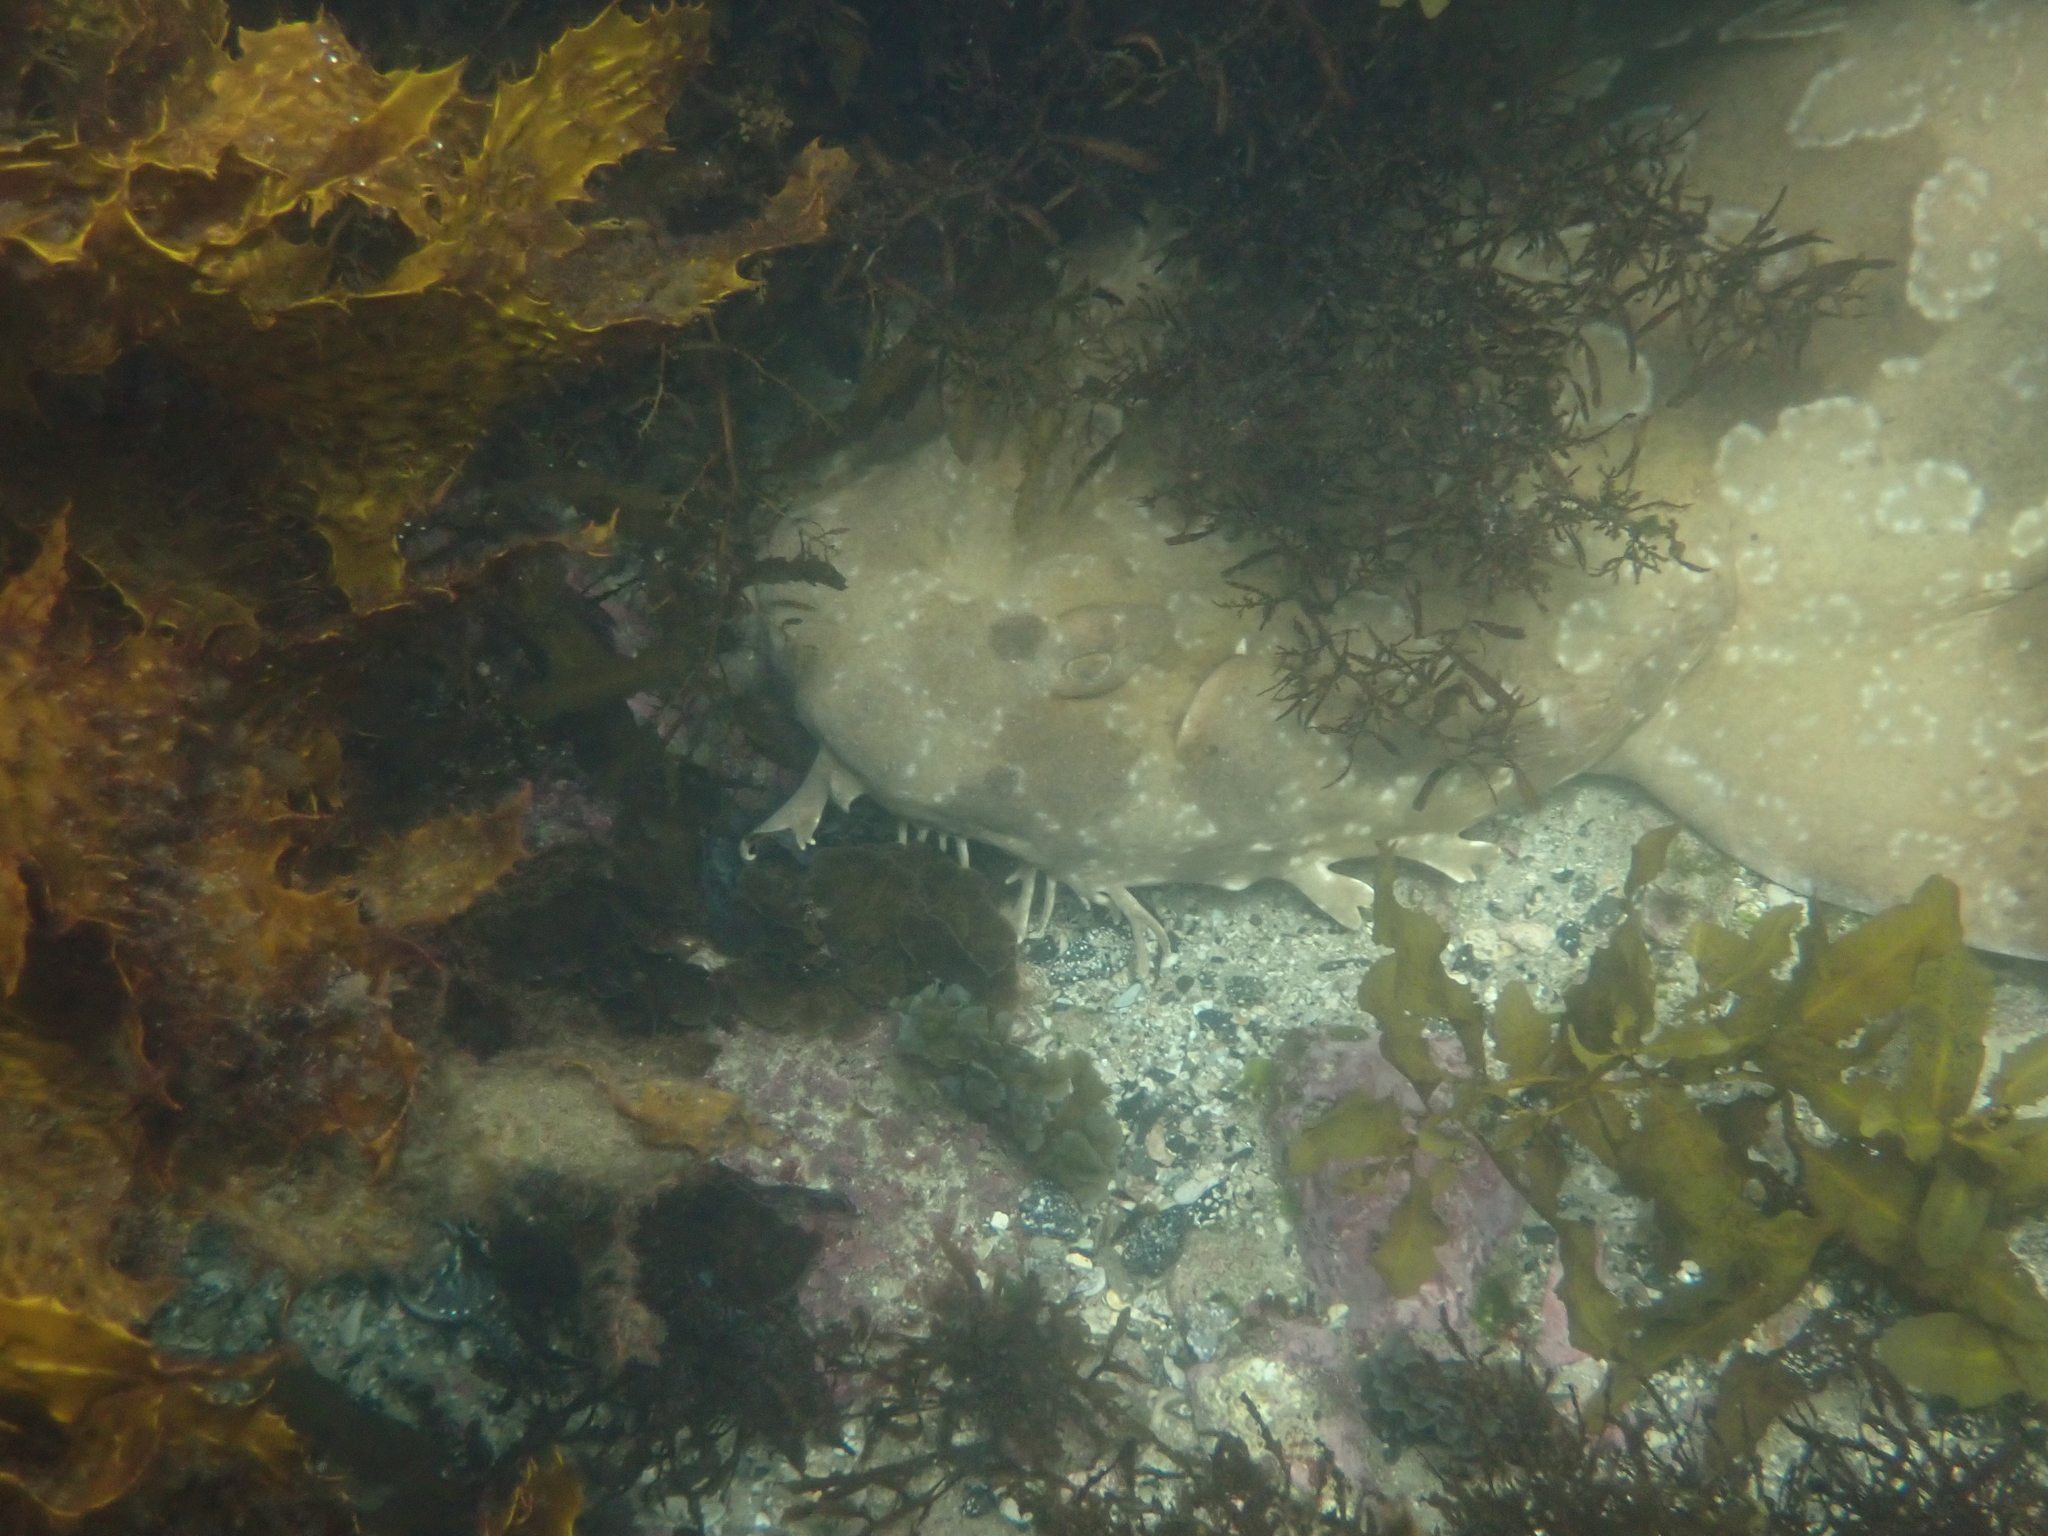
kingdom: Animalia
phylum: Chordata
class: Elasmobranchii
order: Orectolobiformes
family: Orectolobidae
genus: Orectolobus
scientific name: Orectolobus maculatus
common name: Spotted wobbegong
